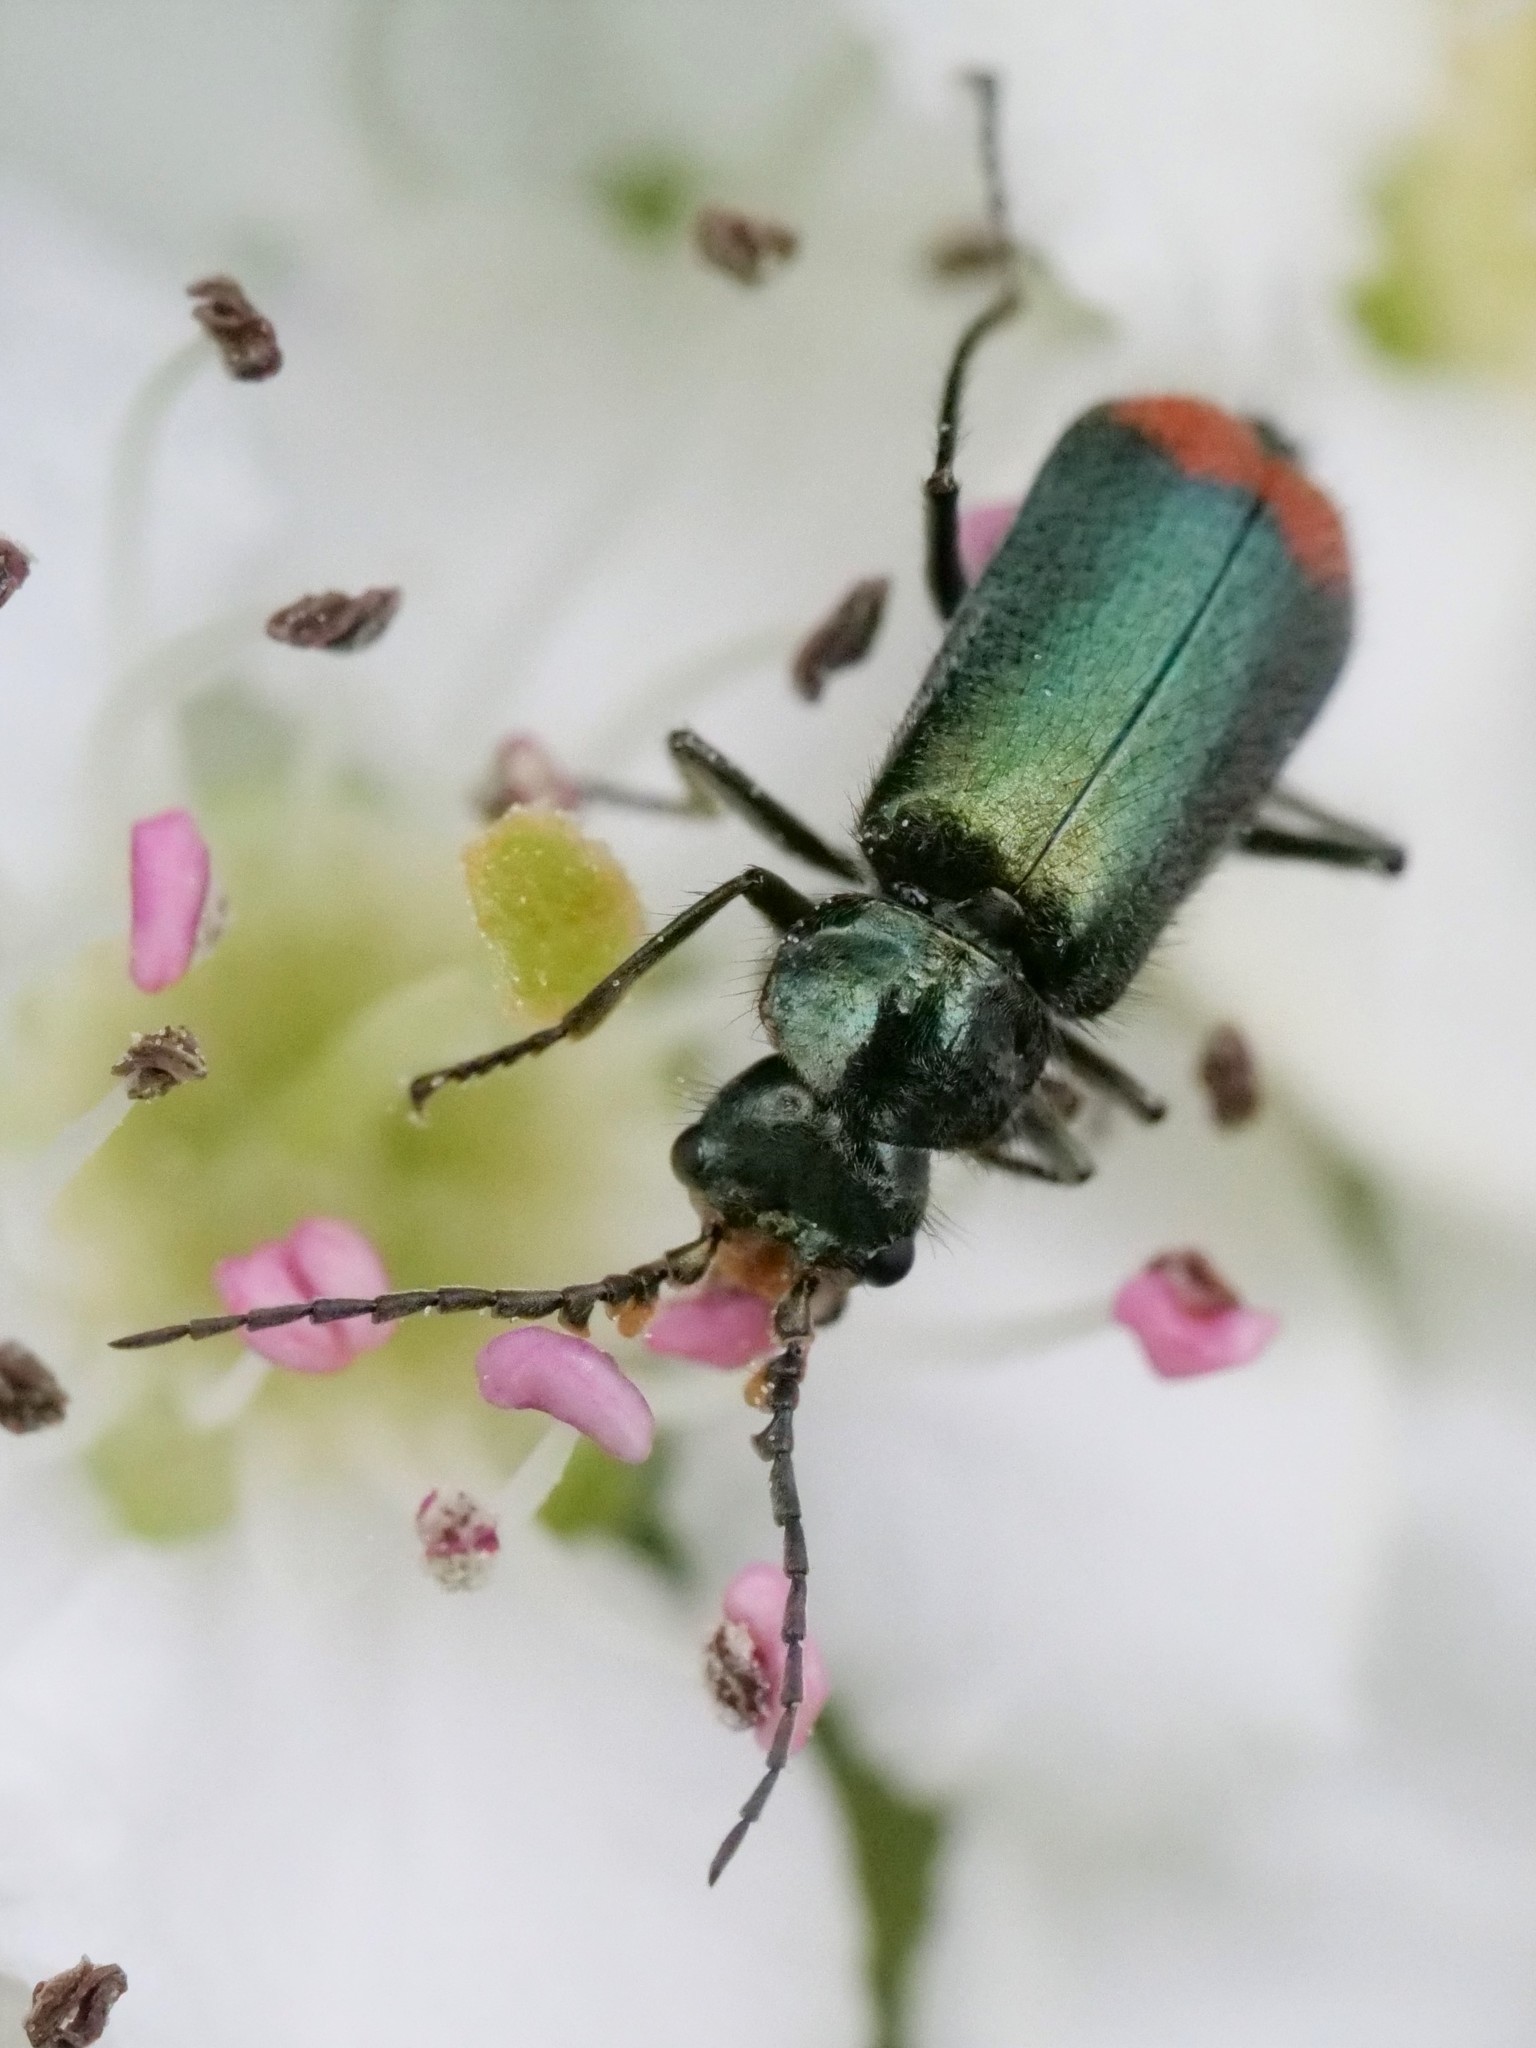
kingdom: Animalia
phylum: Arthropoda
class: Insecta
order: Coleoptera
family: Melyridae
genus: Malachius
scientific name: Malachius bipustulatus
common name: Malachite beetle
